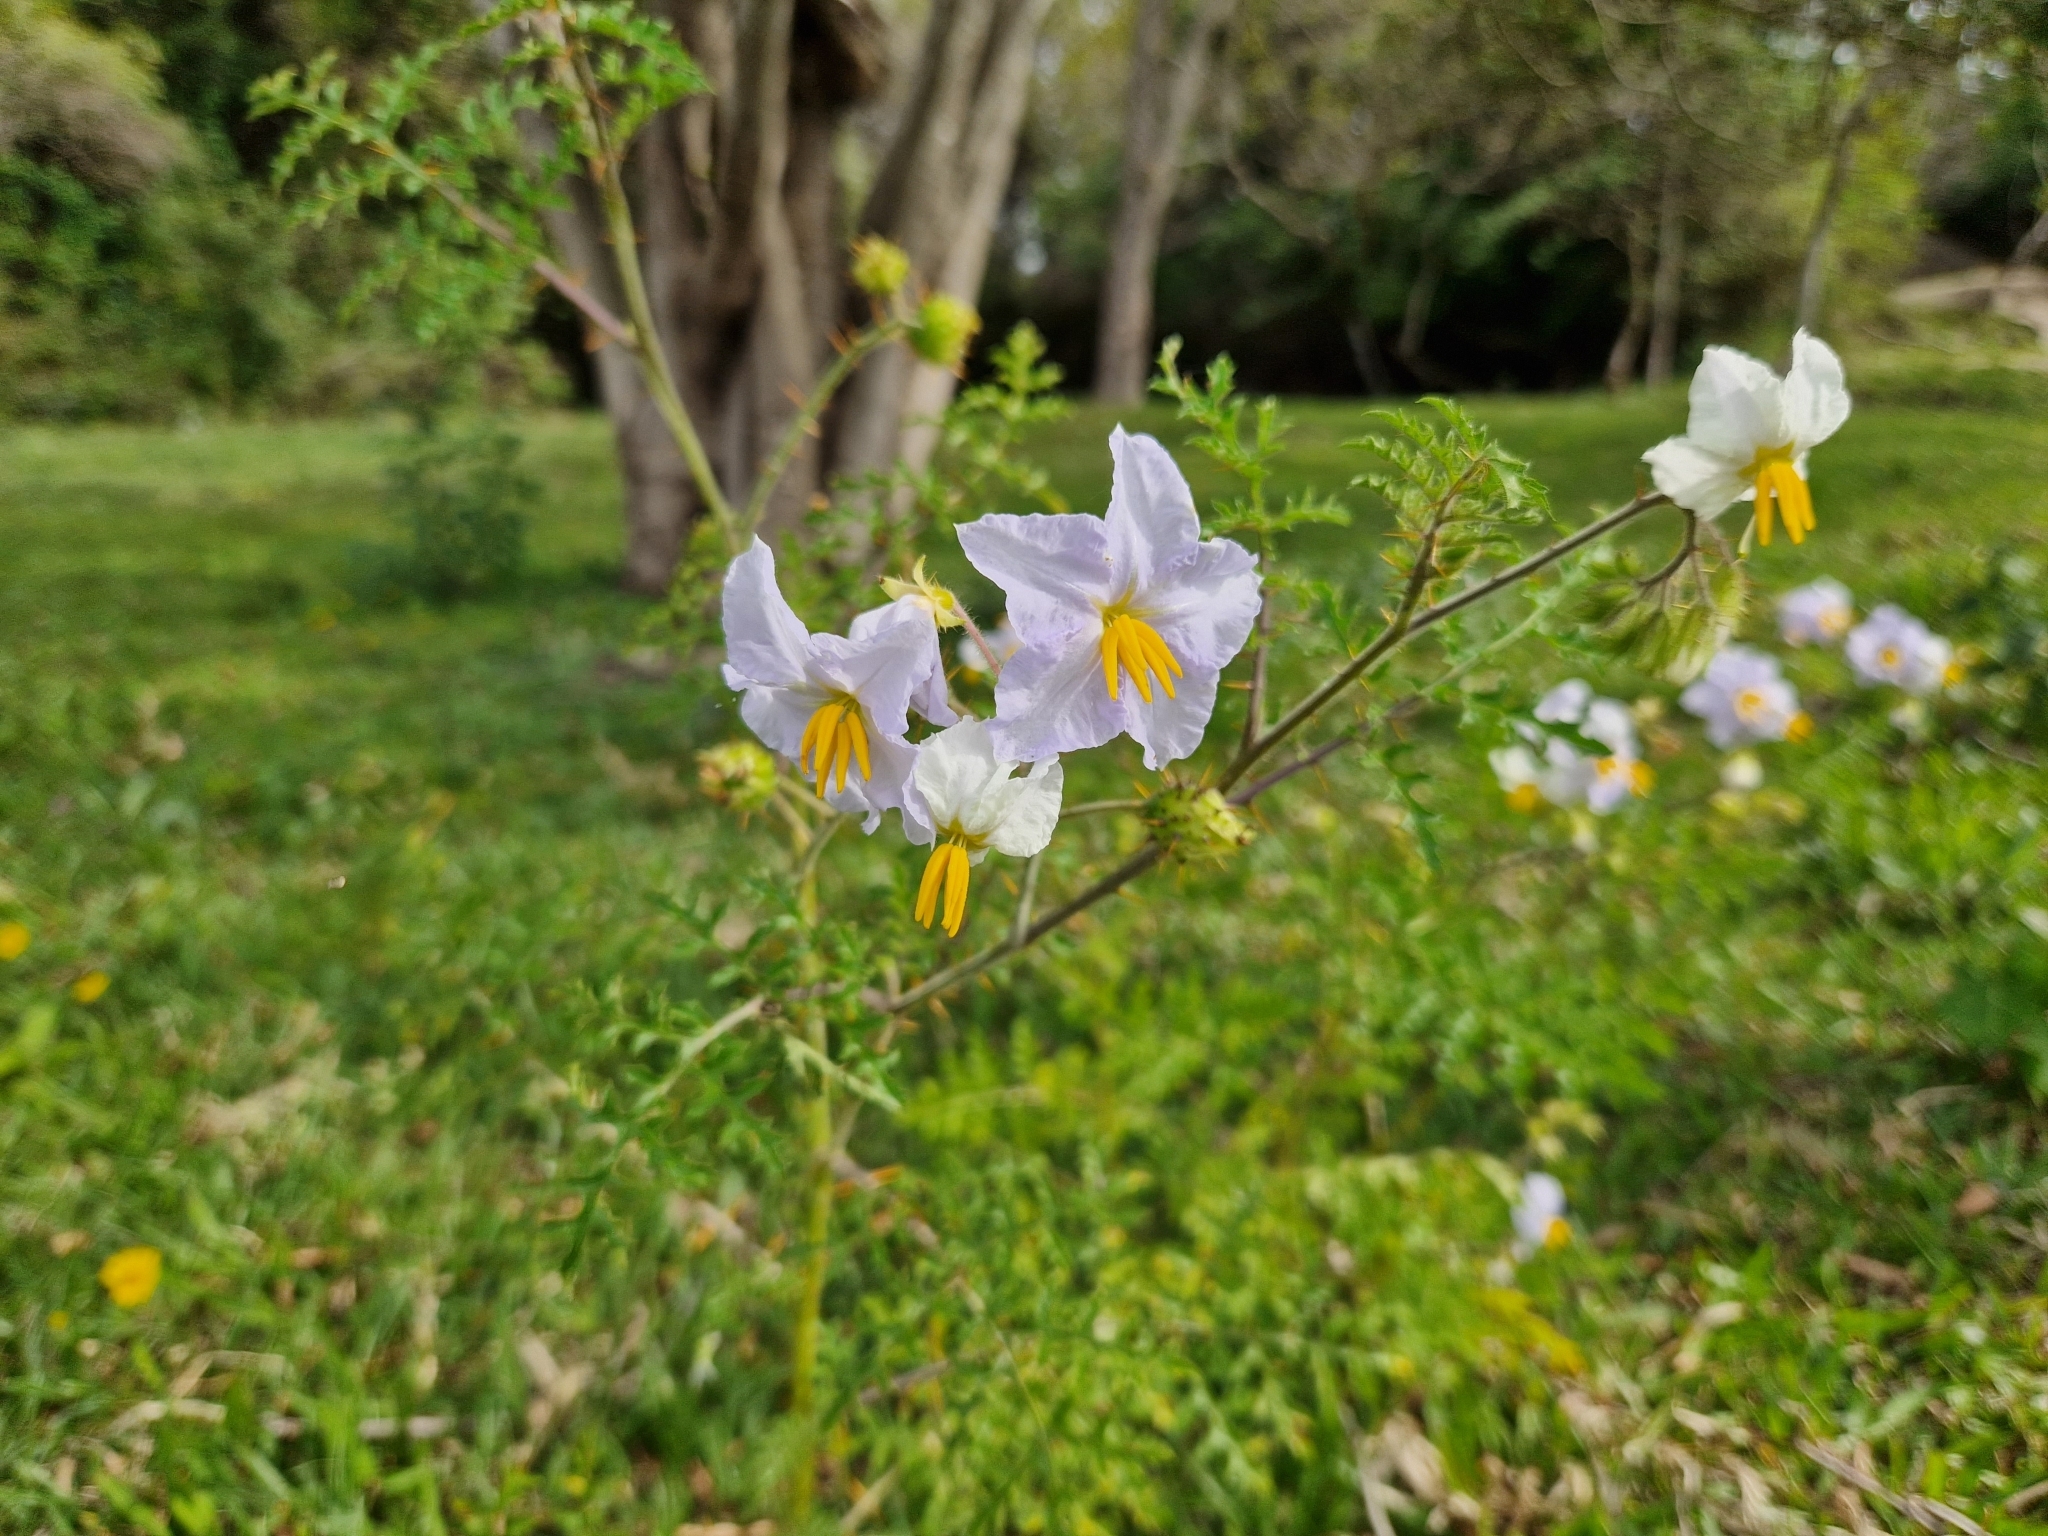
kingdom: Plantae
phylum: Tracheophyta
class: Magnoliopsida
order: Solanales
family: Solanaceae
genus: Solanum
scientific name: Solanum sisymbriifolium
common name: Red buffalo-bur
